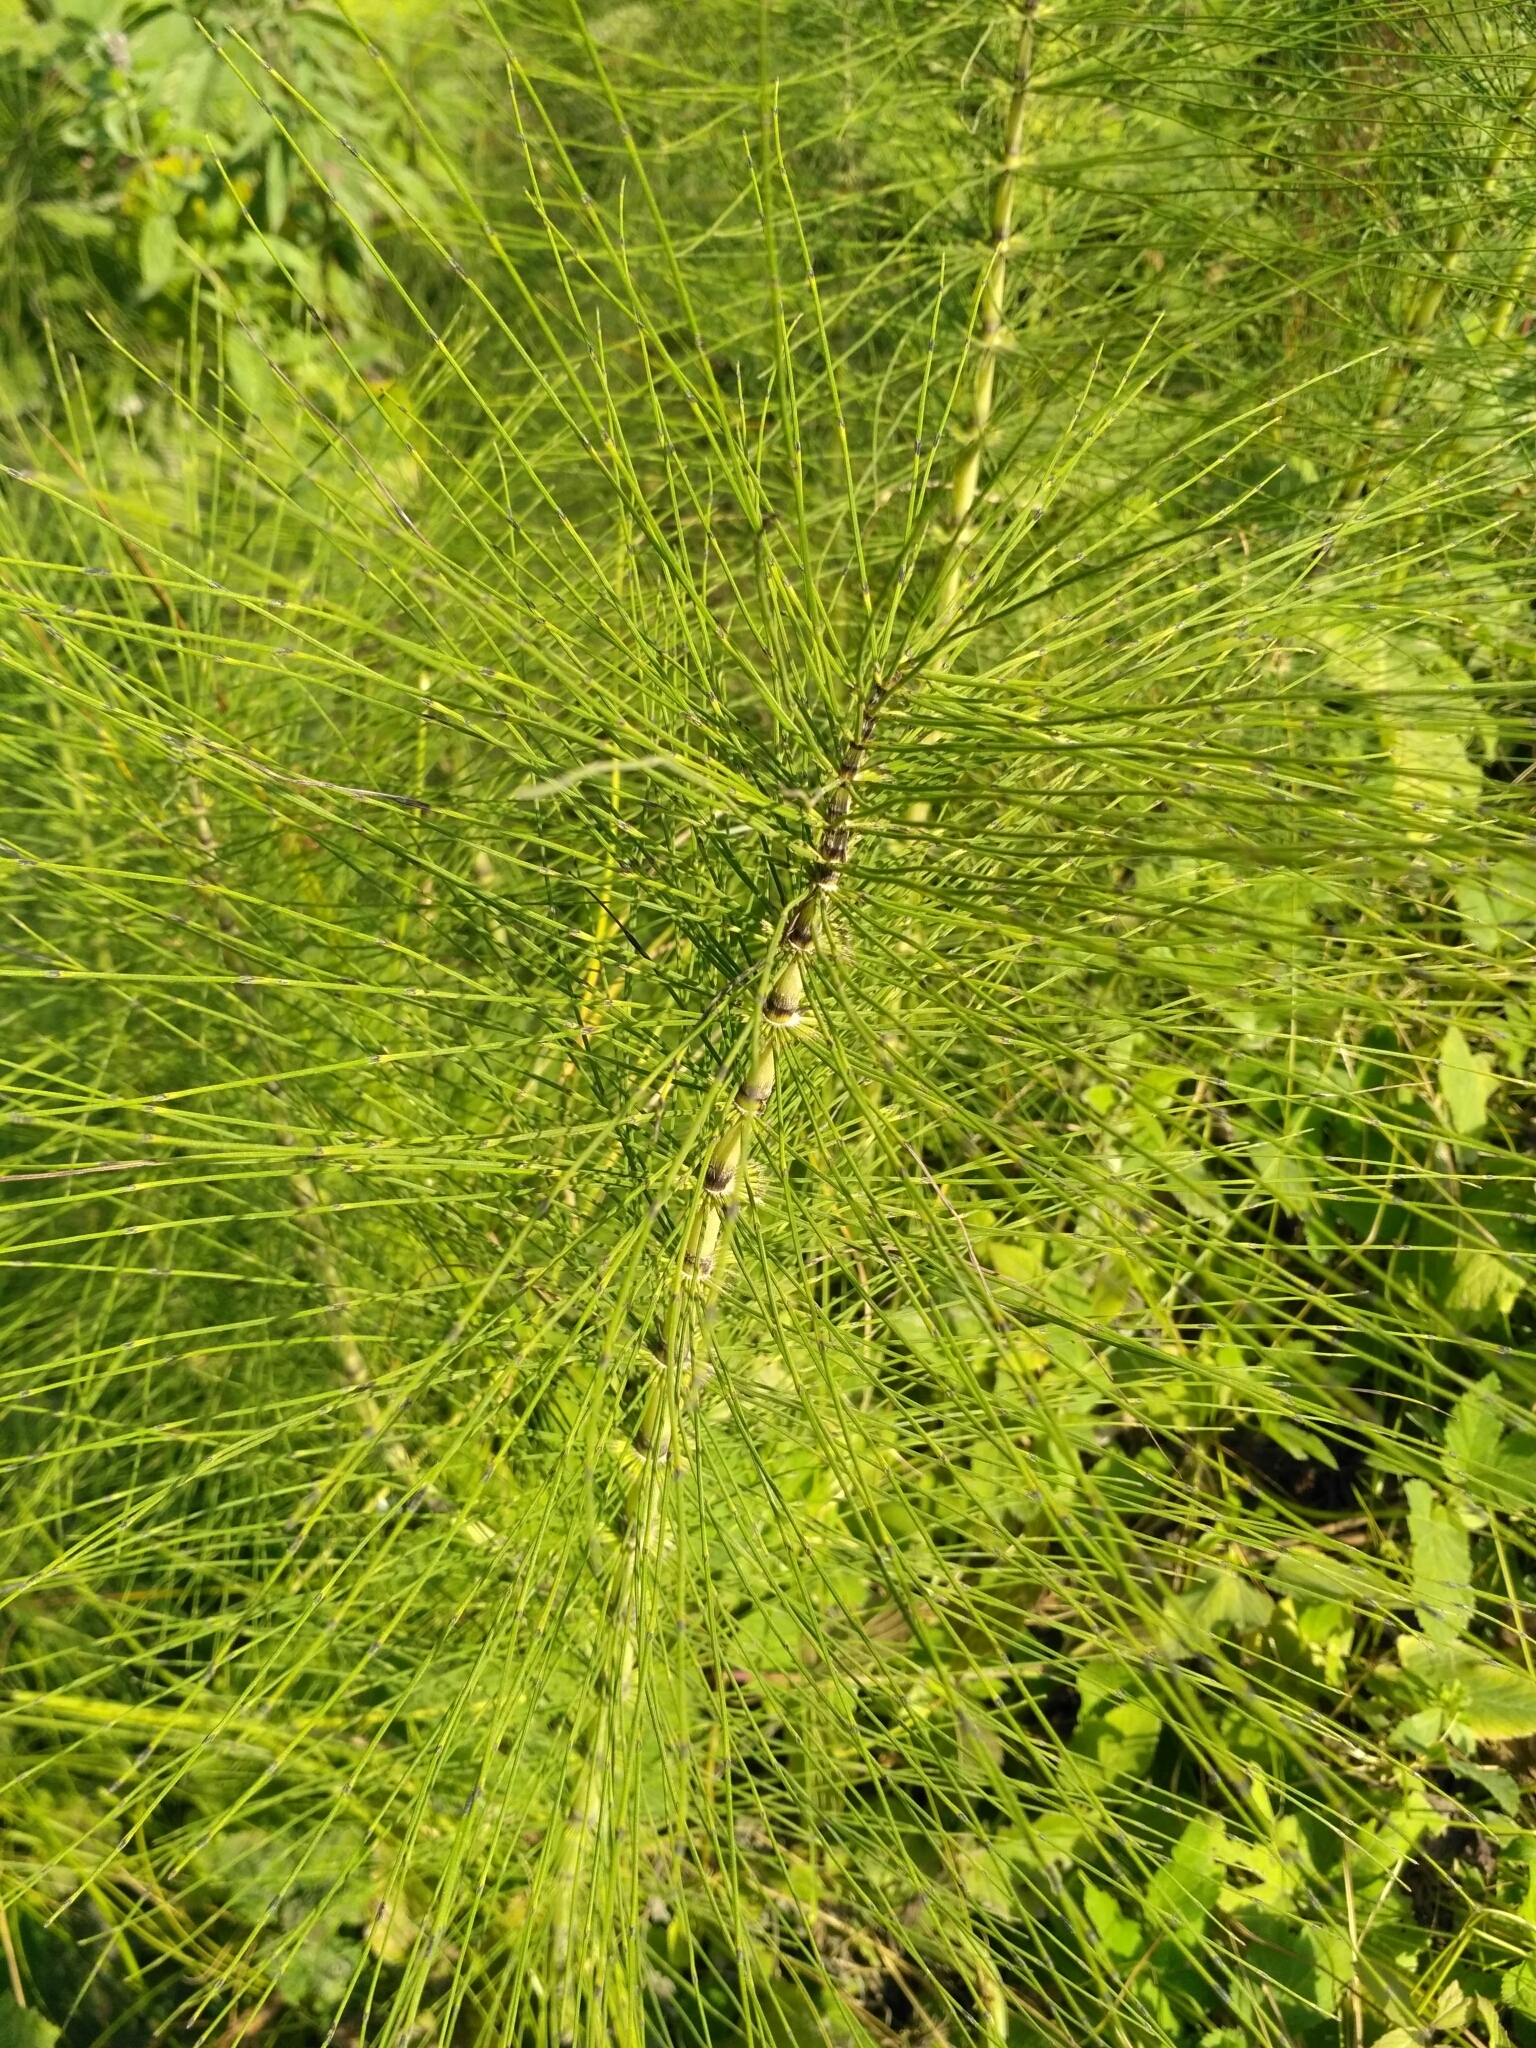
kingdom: Plantae
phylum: Tracheophyta
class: Polypodiopsida
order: Equisetales
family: Equisetaceae
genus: Equisetum
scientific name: Equisetum telmateia
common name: Great horsetail
